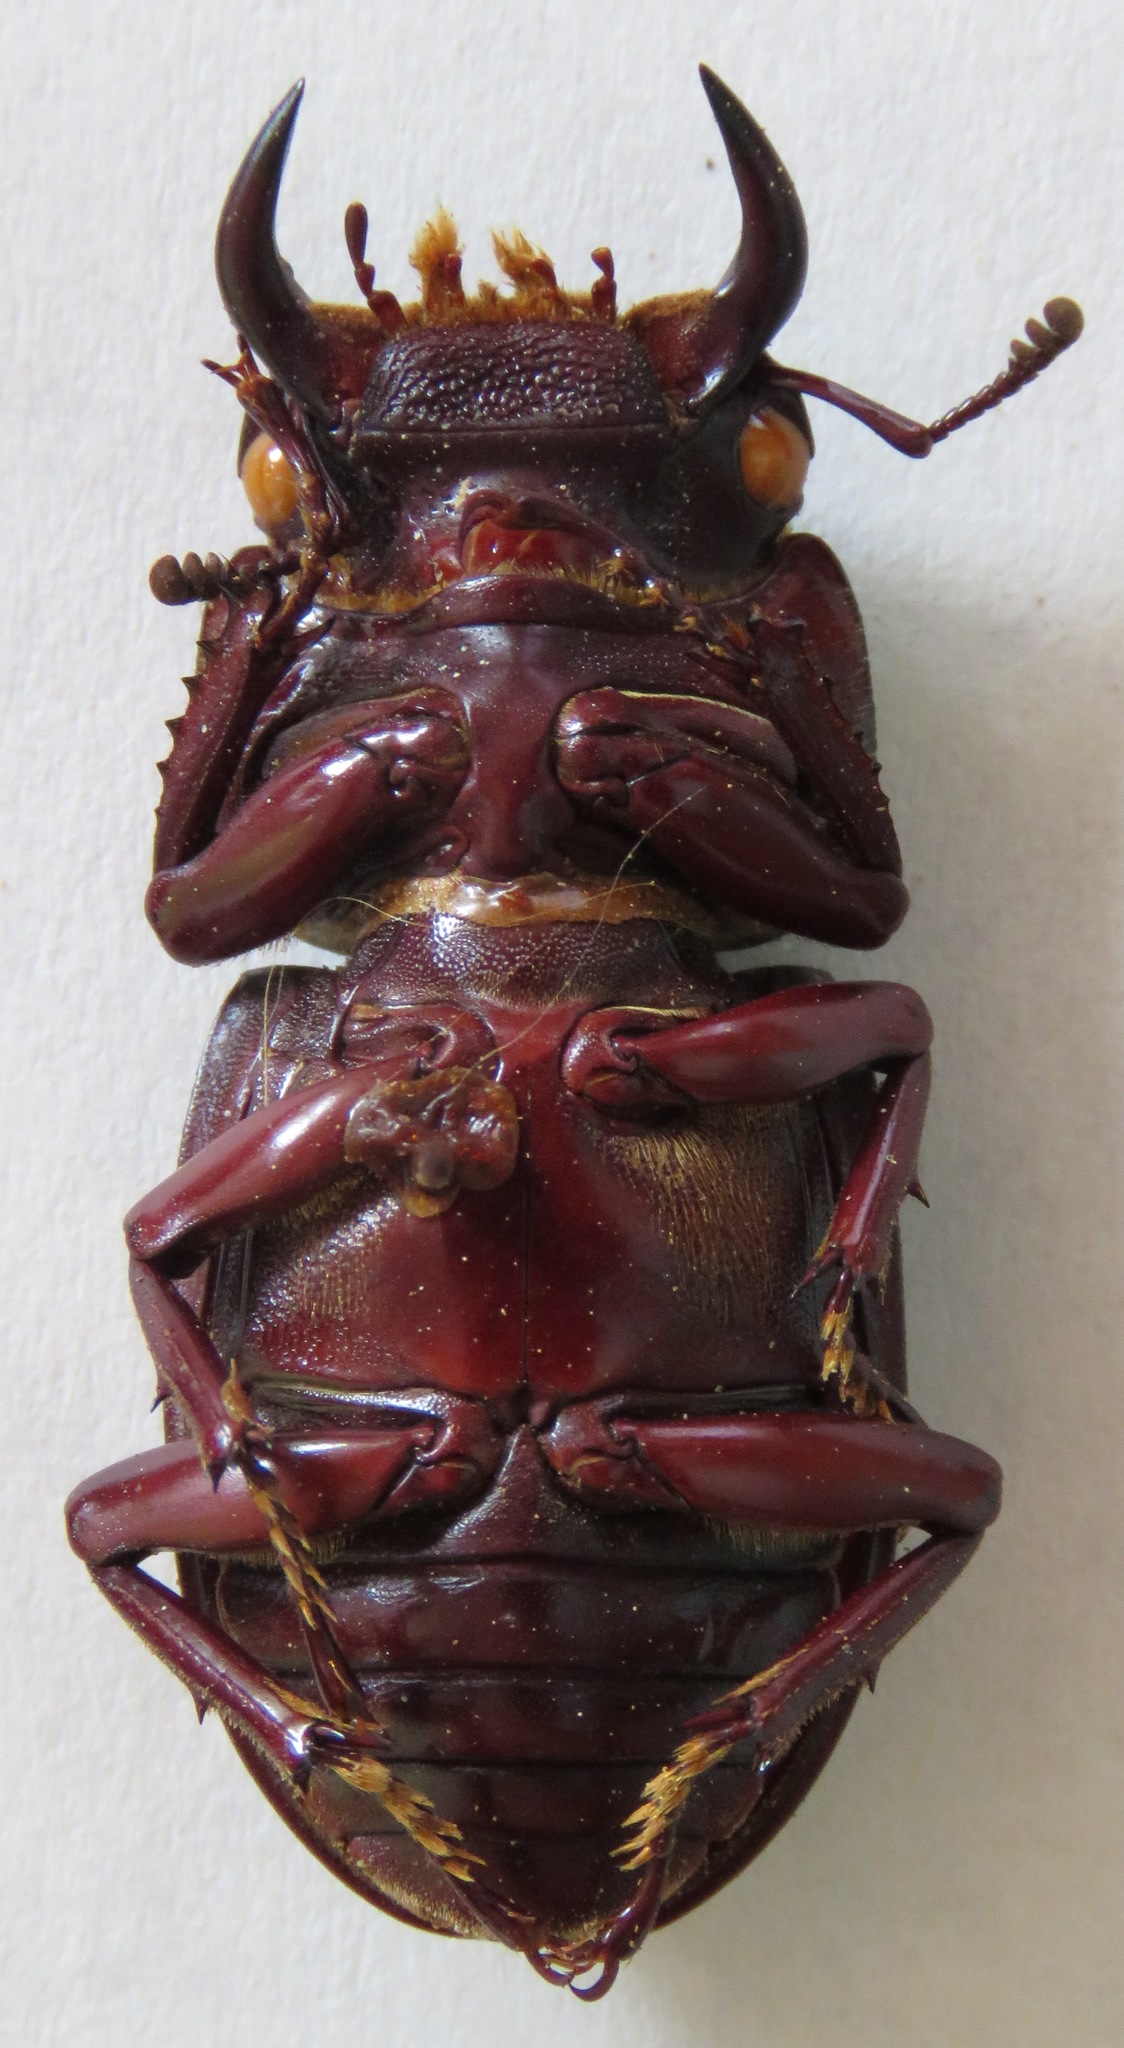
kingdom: Animalia
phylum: Arthropoda
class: Insecta
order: Coleoptera
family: Lucanidae
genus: Dorcus
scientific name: Dorcus antaeus
